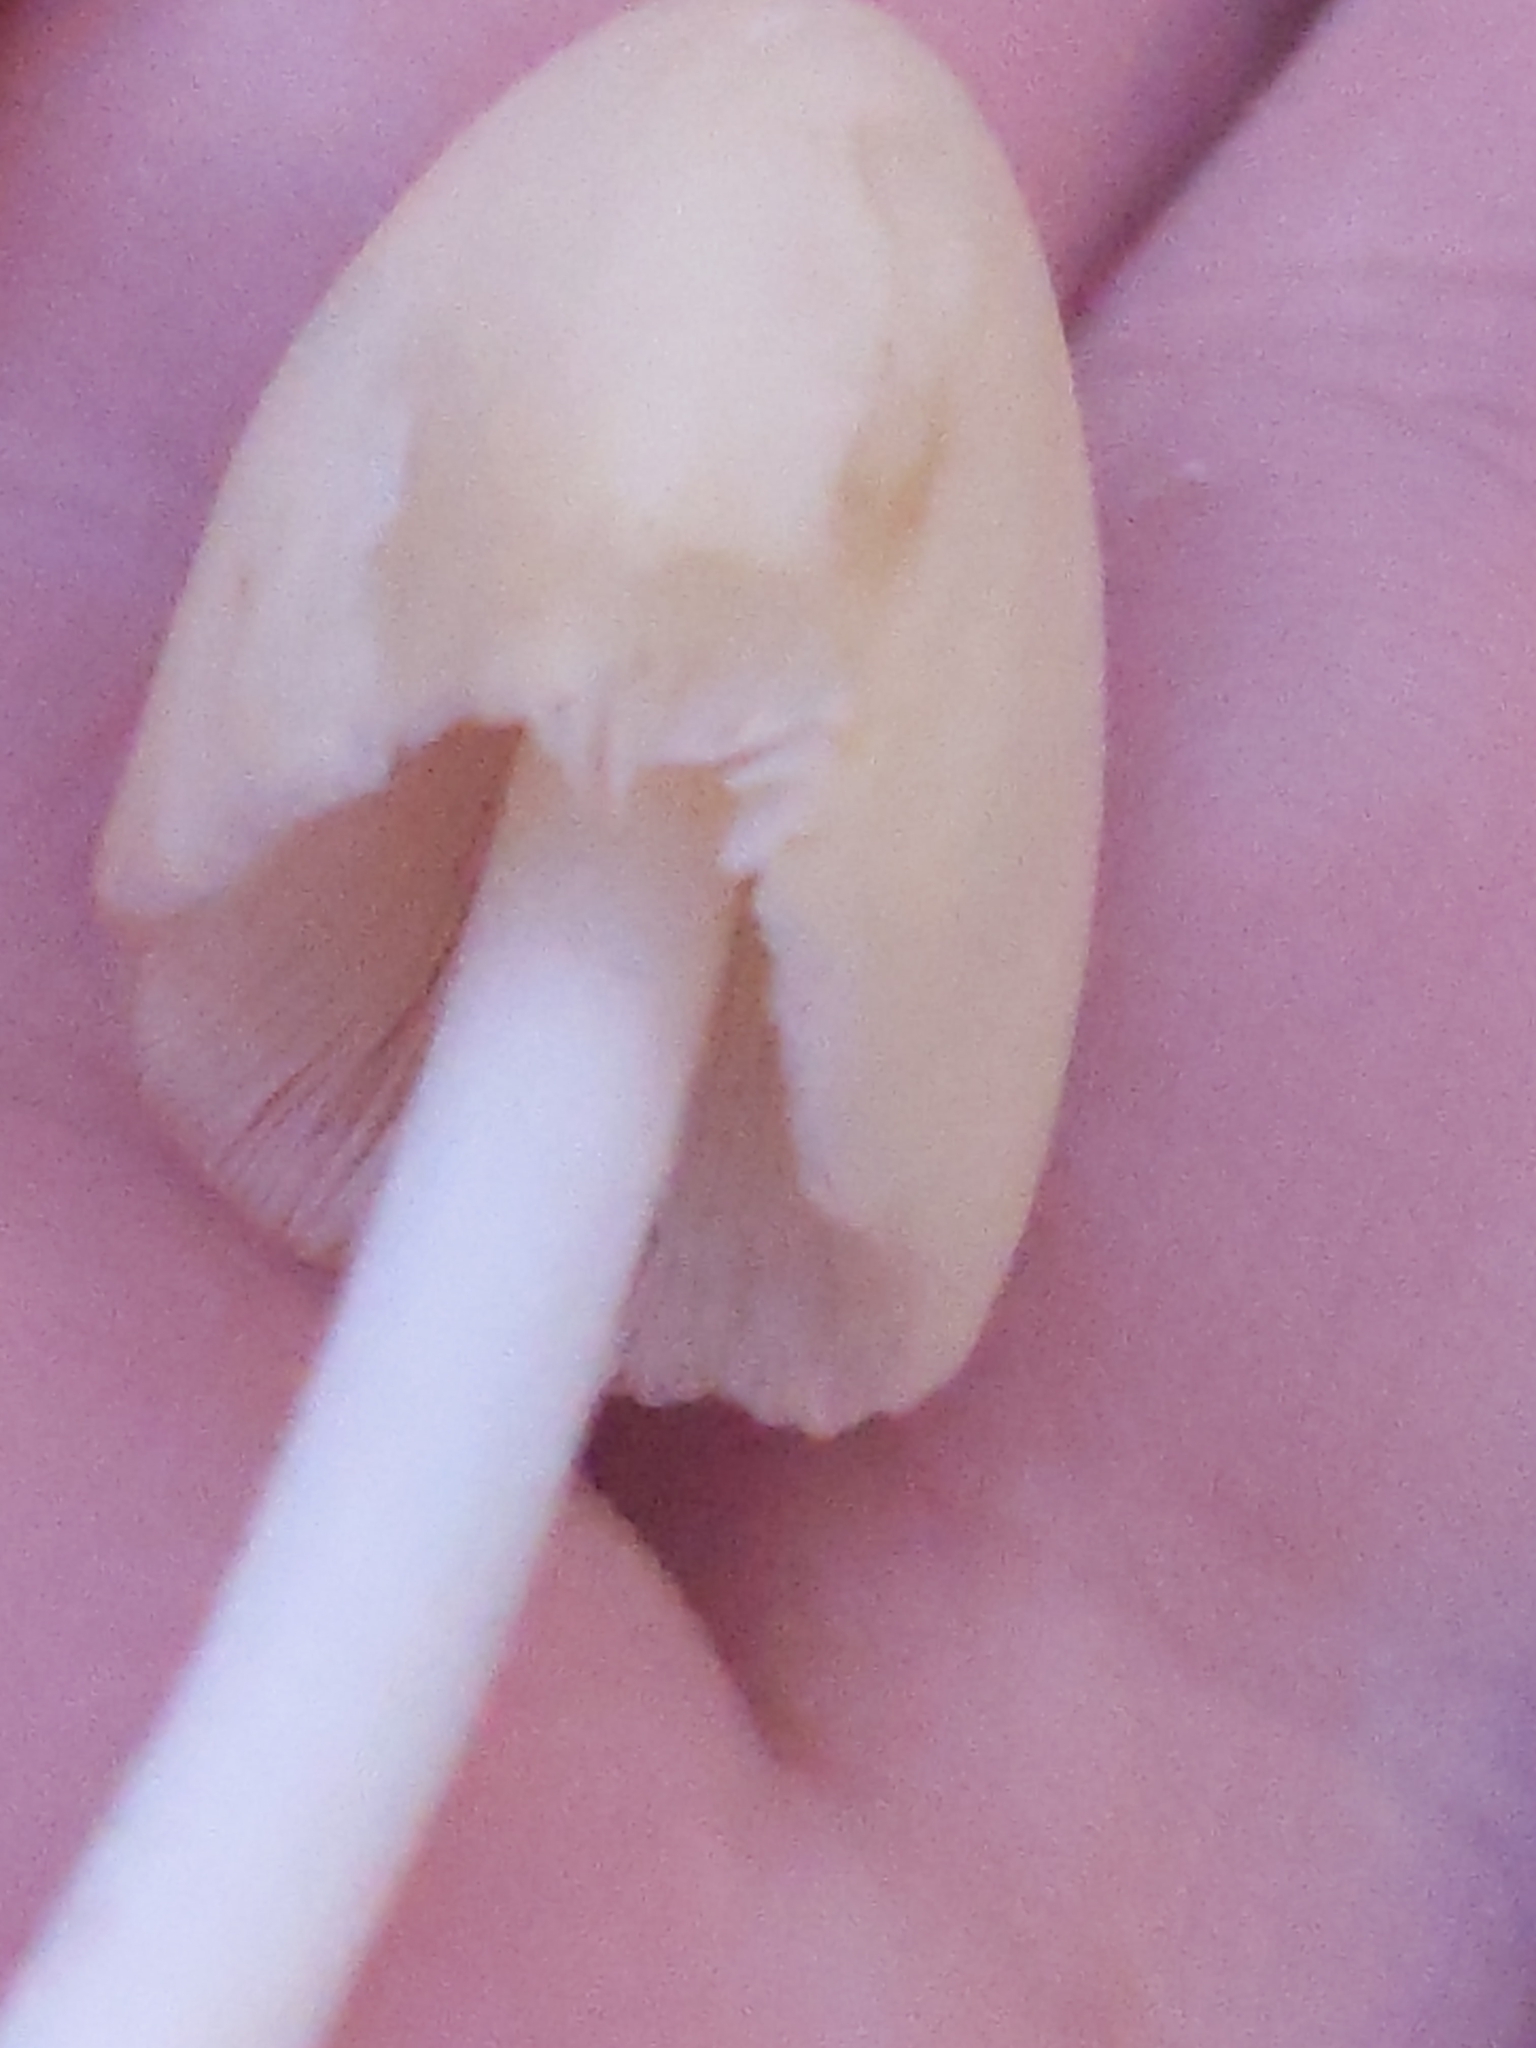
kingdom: Fungi
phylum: Basidiomycota
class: Agaricomycetes
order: Agaricales
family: Bolbitiaceae
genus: Conocybe
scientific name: Conocybe apala
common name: Milky conecap
